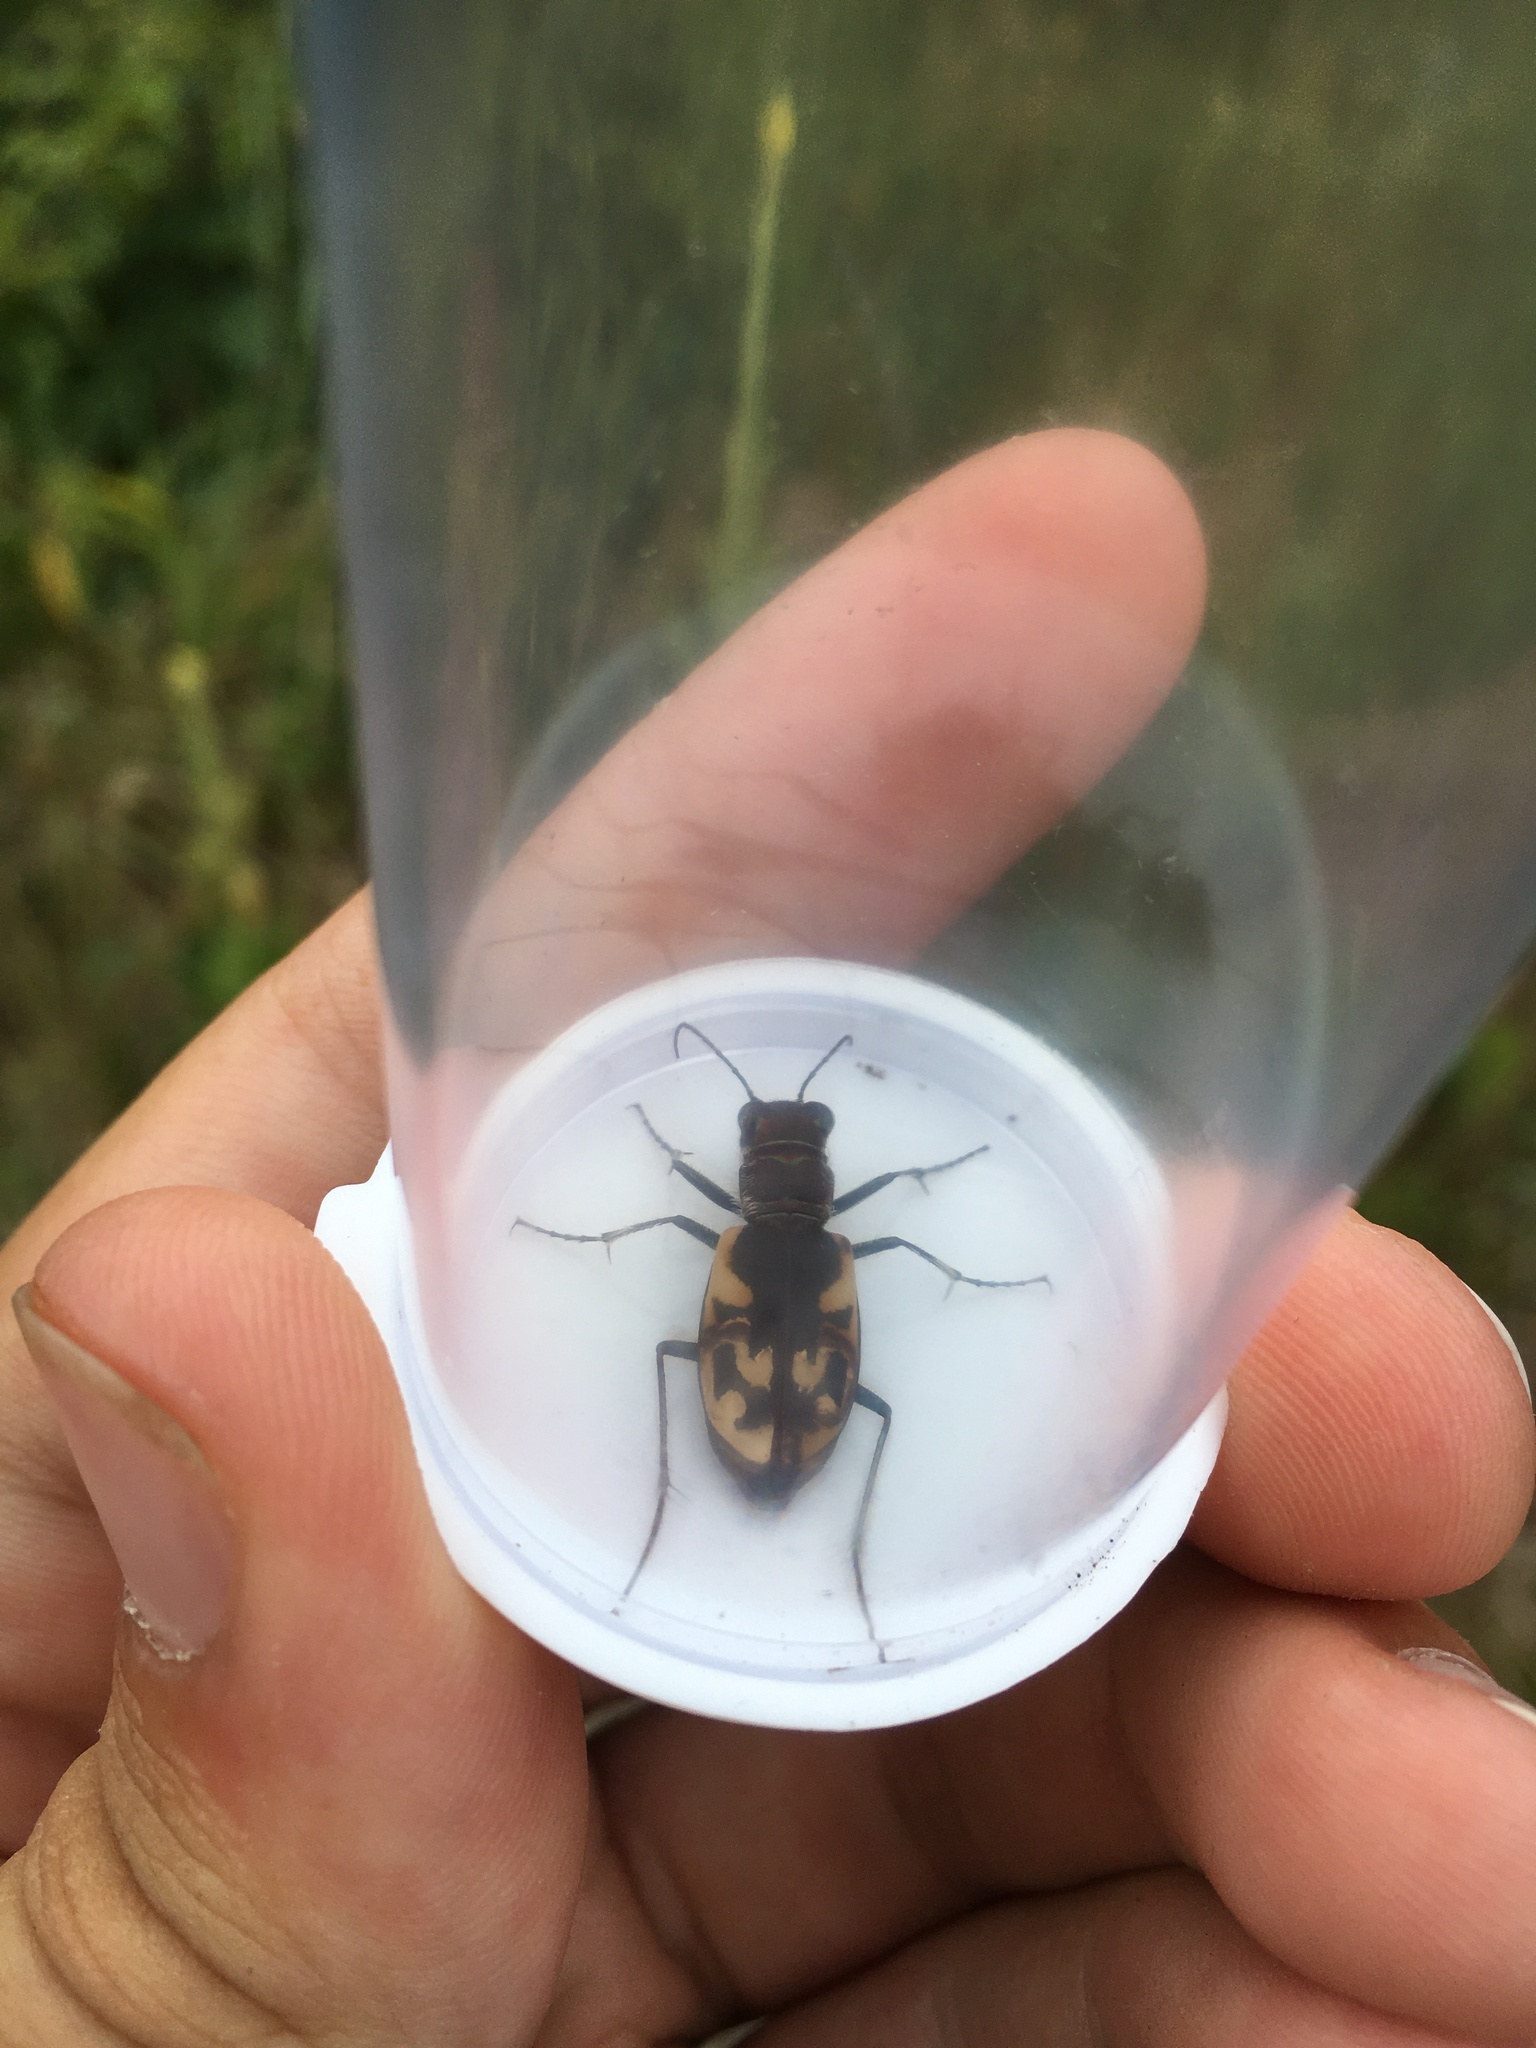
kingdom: Animalia
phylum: Arthropoda
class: Insecta
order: Coleoptera
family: Carabidae
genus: Cicindela
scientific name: Cicindela formosa
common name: Big sand tiger beetle
